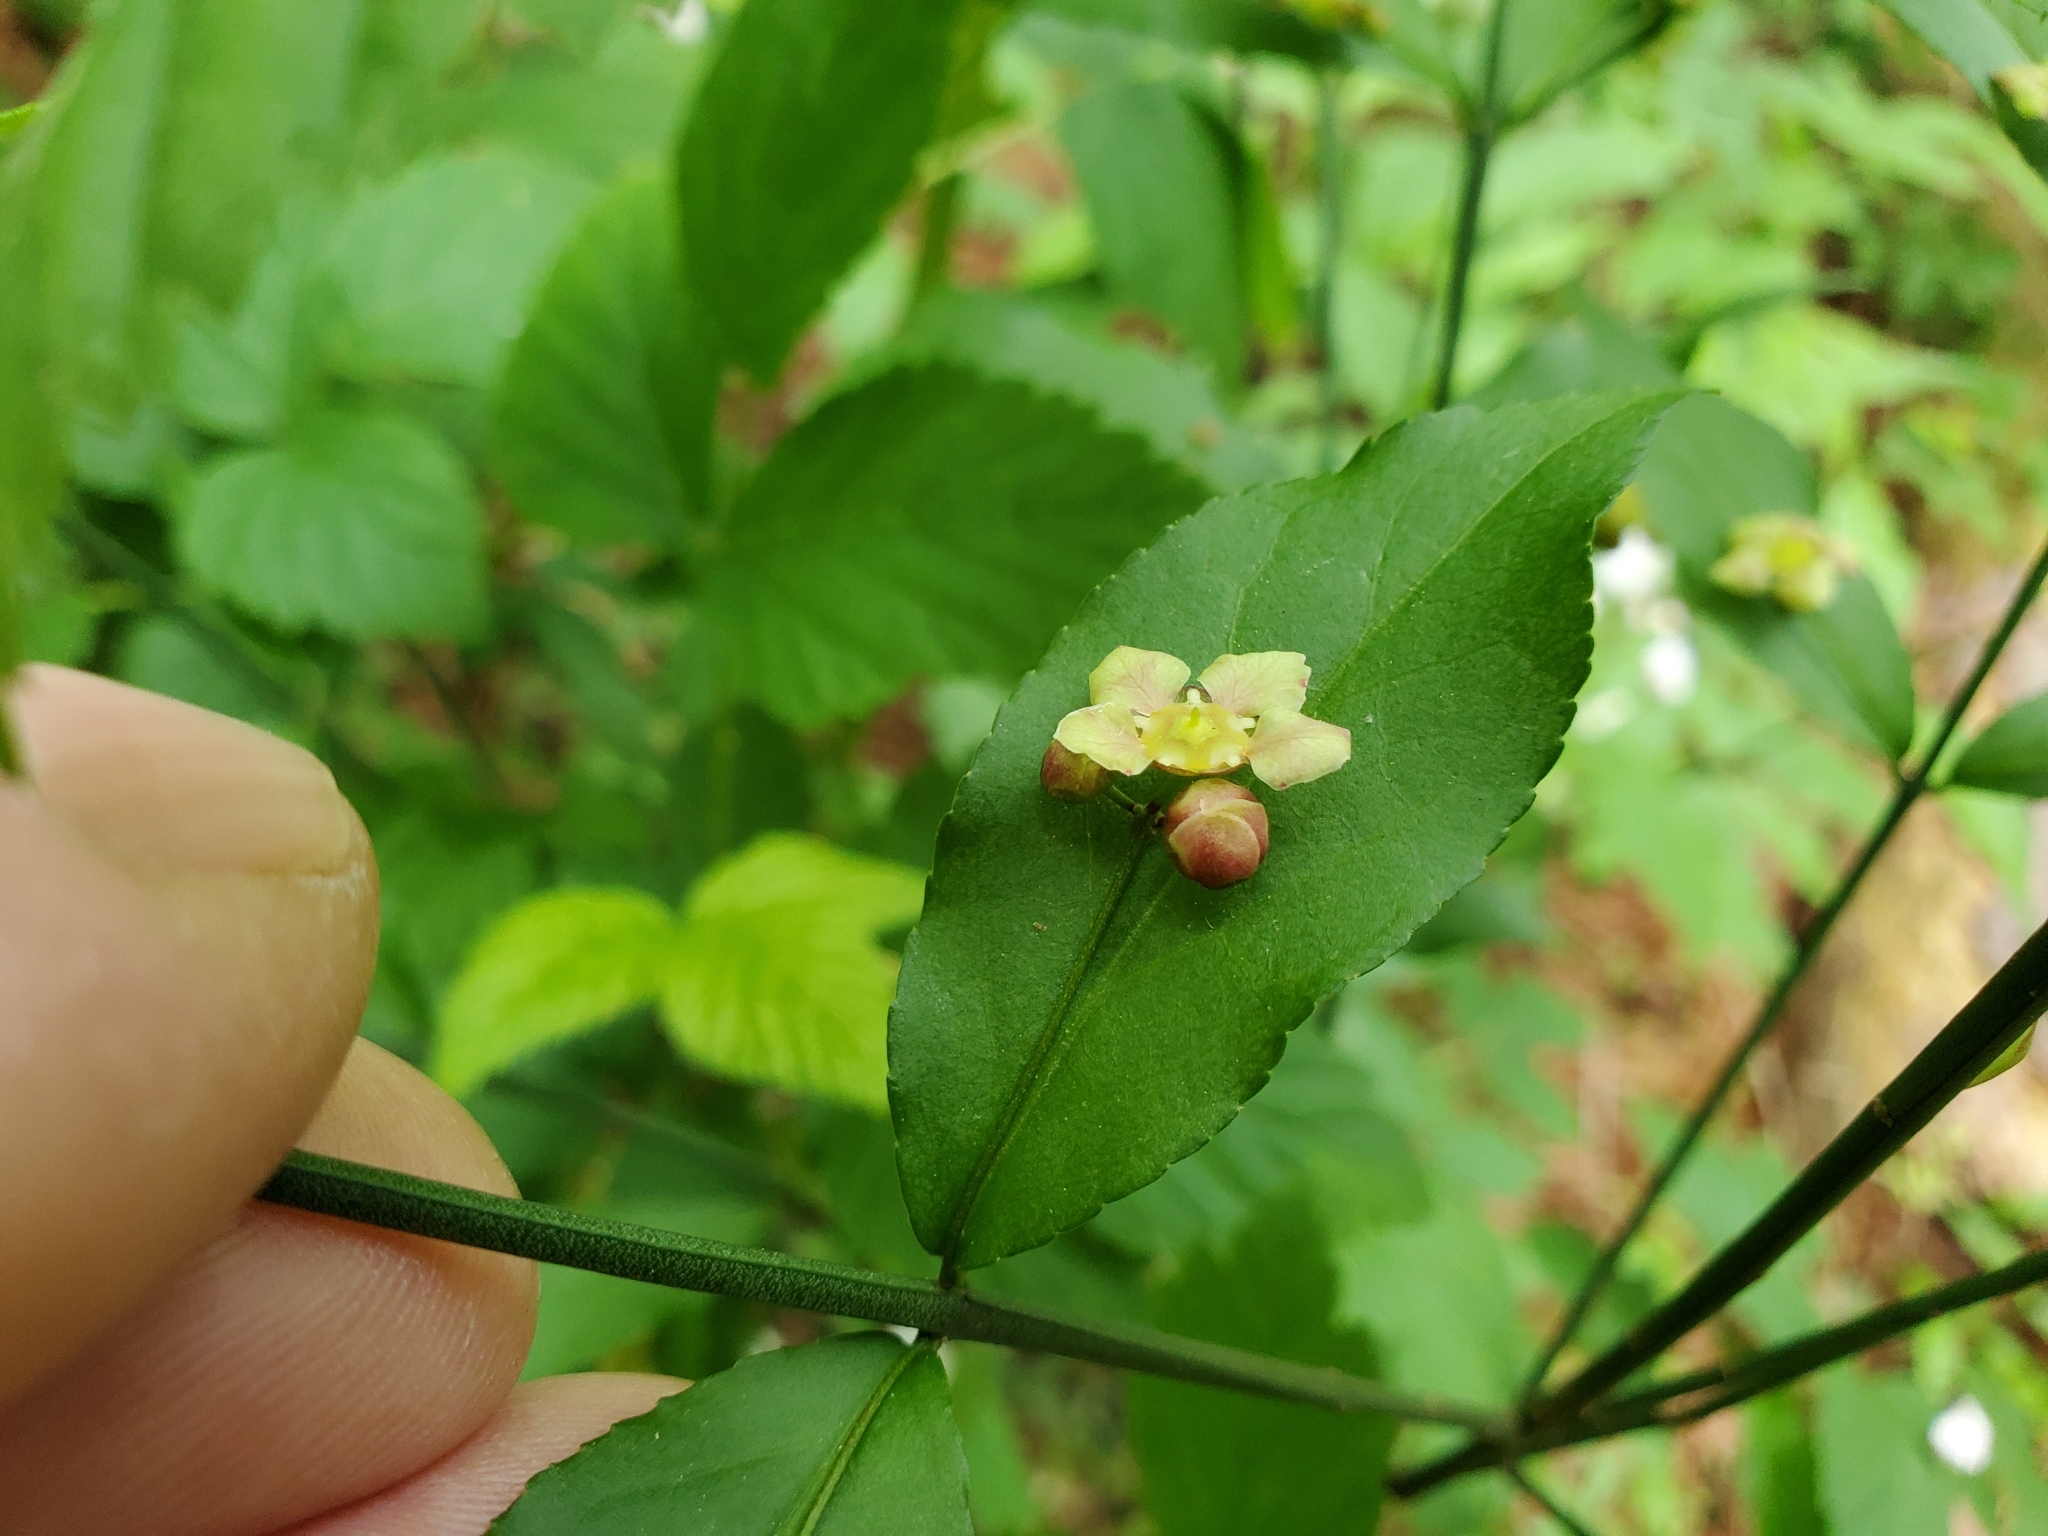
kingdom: Plantae
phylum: Tracheophyta
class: Magnoliopsida
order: Celastrales
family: Celastraceae
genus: Euonymus
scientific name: Euonymus americanus
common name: Bursting-heart
